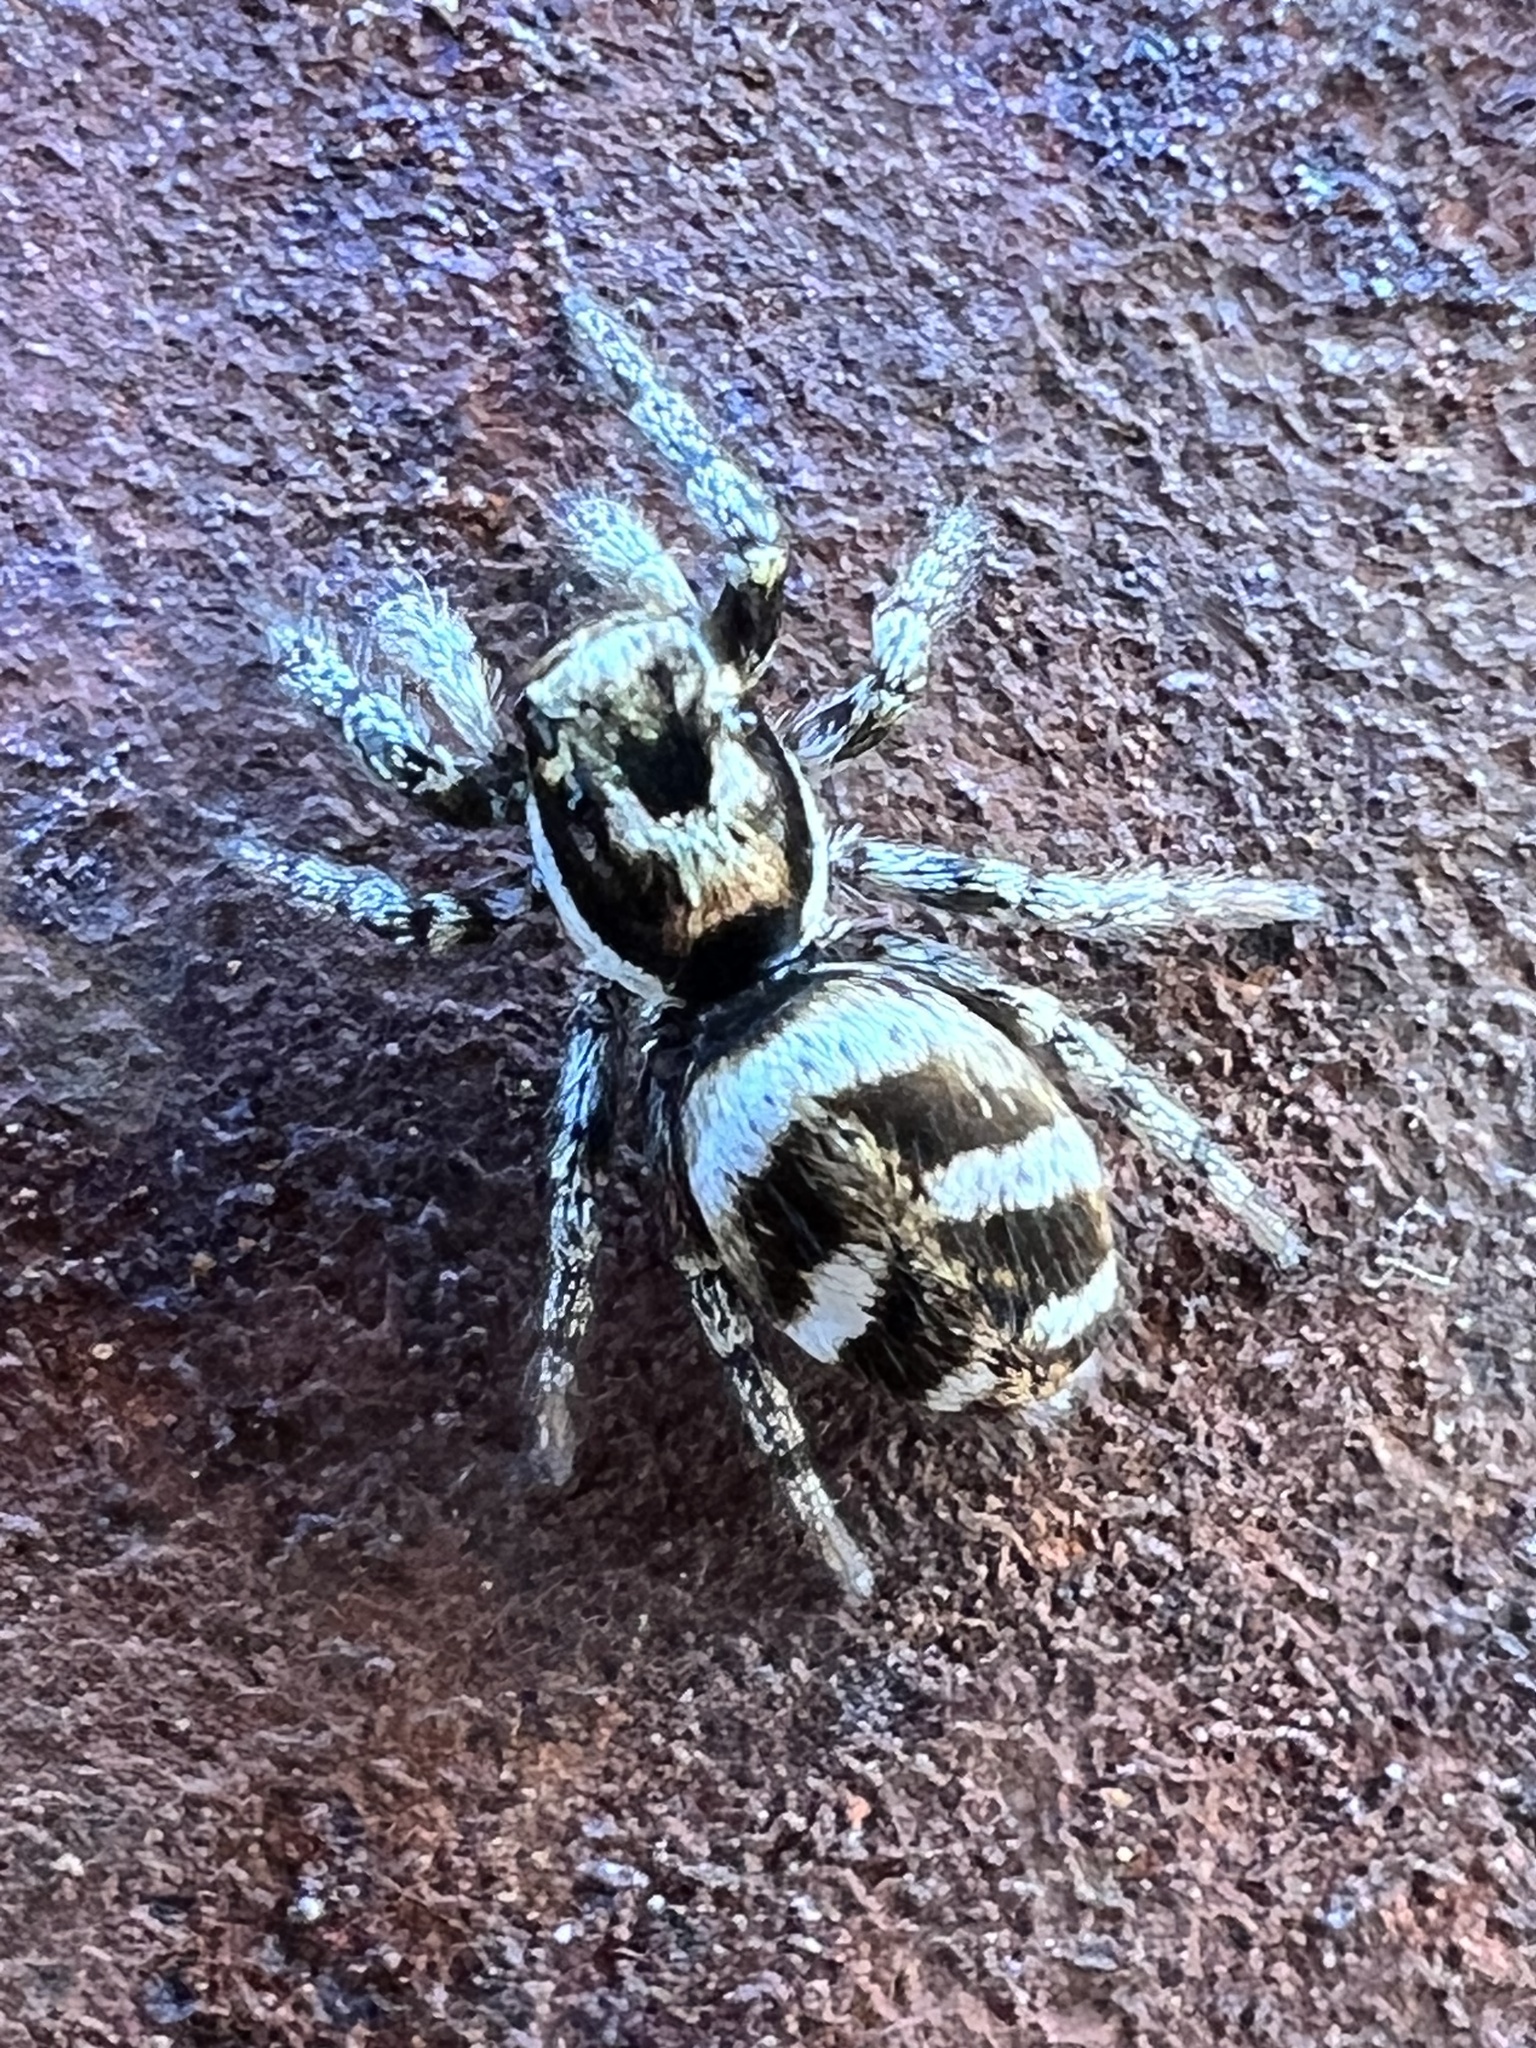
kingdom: Animalia
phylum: Arthropoda
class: Arachnida
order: Araneae
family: Salticidae
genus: Salticus
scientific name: Salticus scenicus
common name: Zebra jumper
